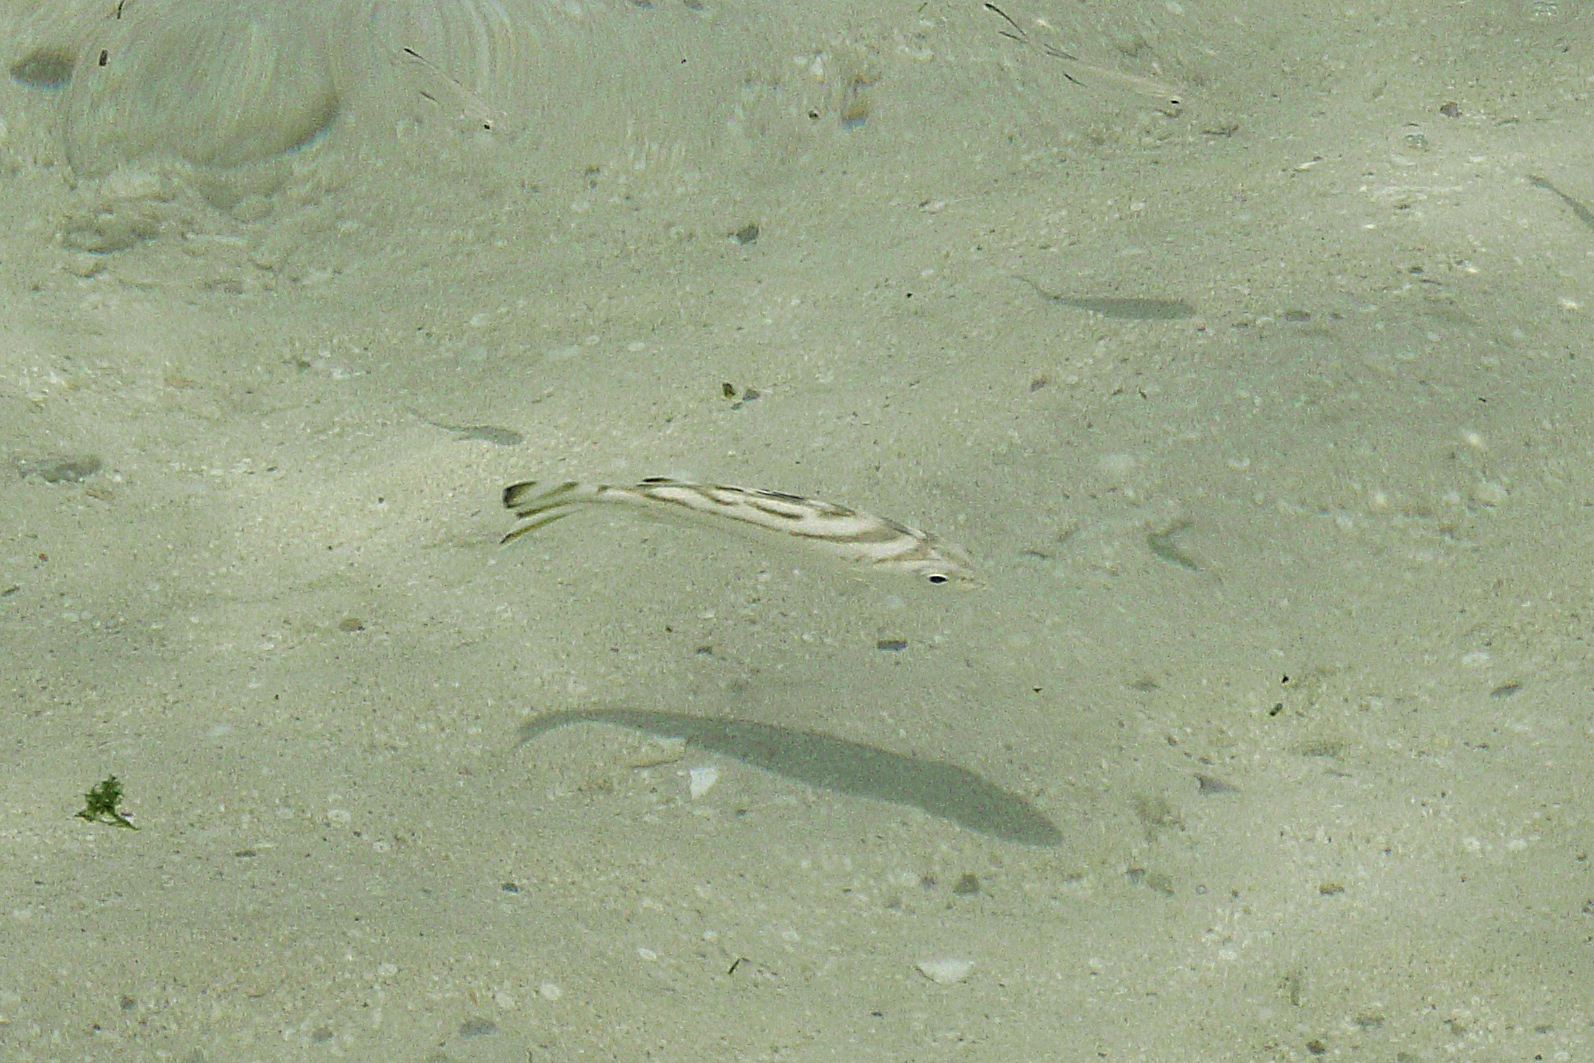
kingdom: Animalia
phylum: Chordata
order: Perciformes
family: Terapontidae
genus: Terapon
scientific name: Terapon jarbua
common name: Jarbua terapon
